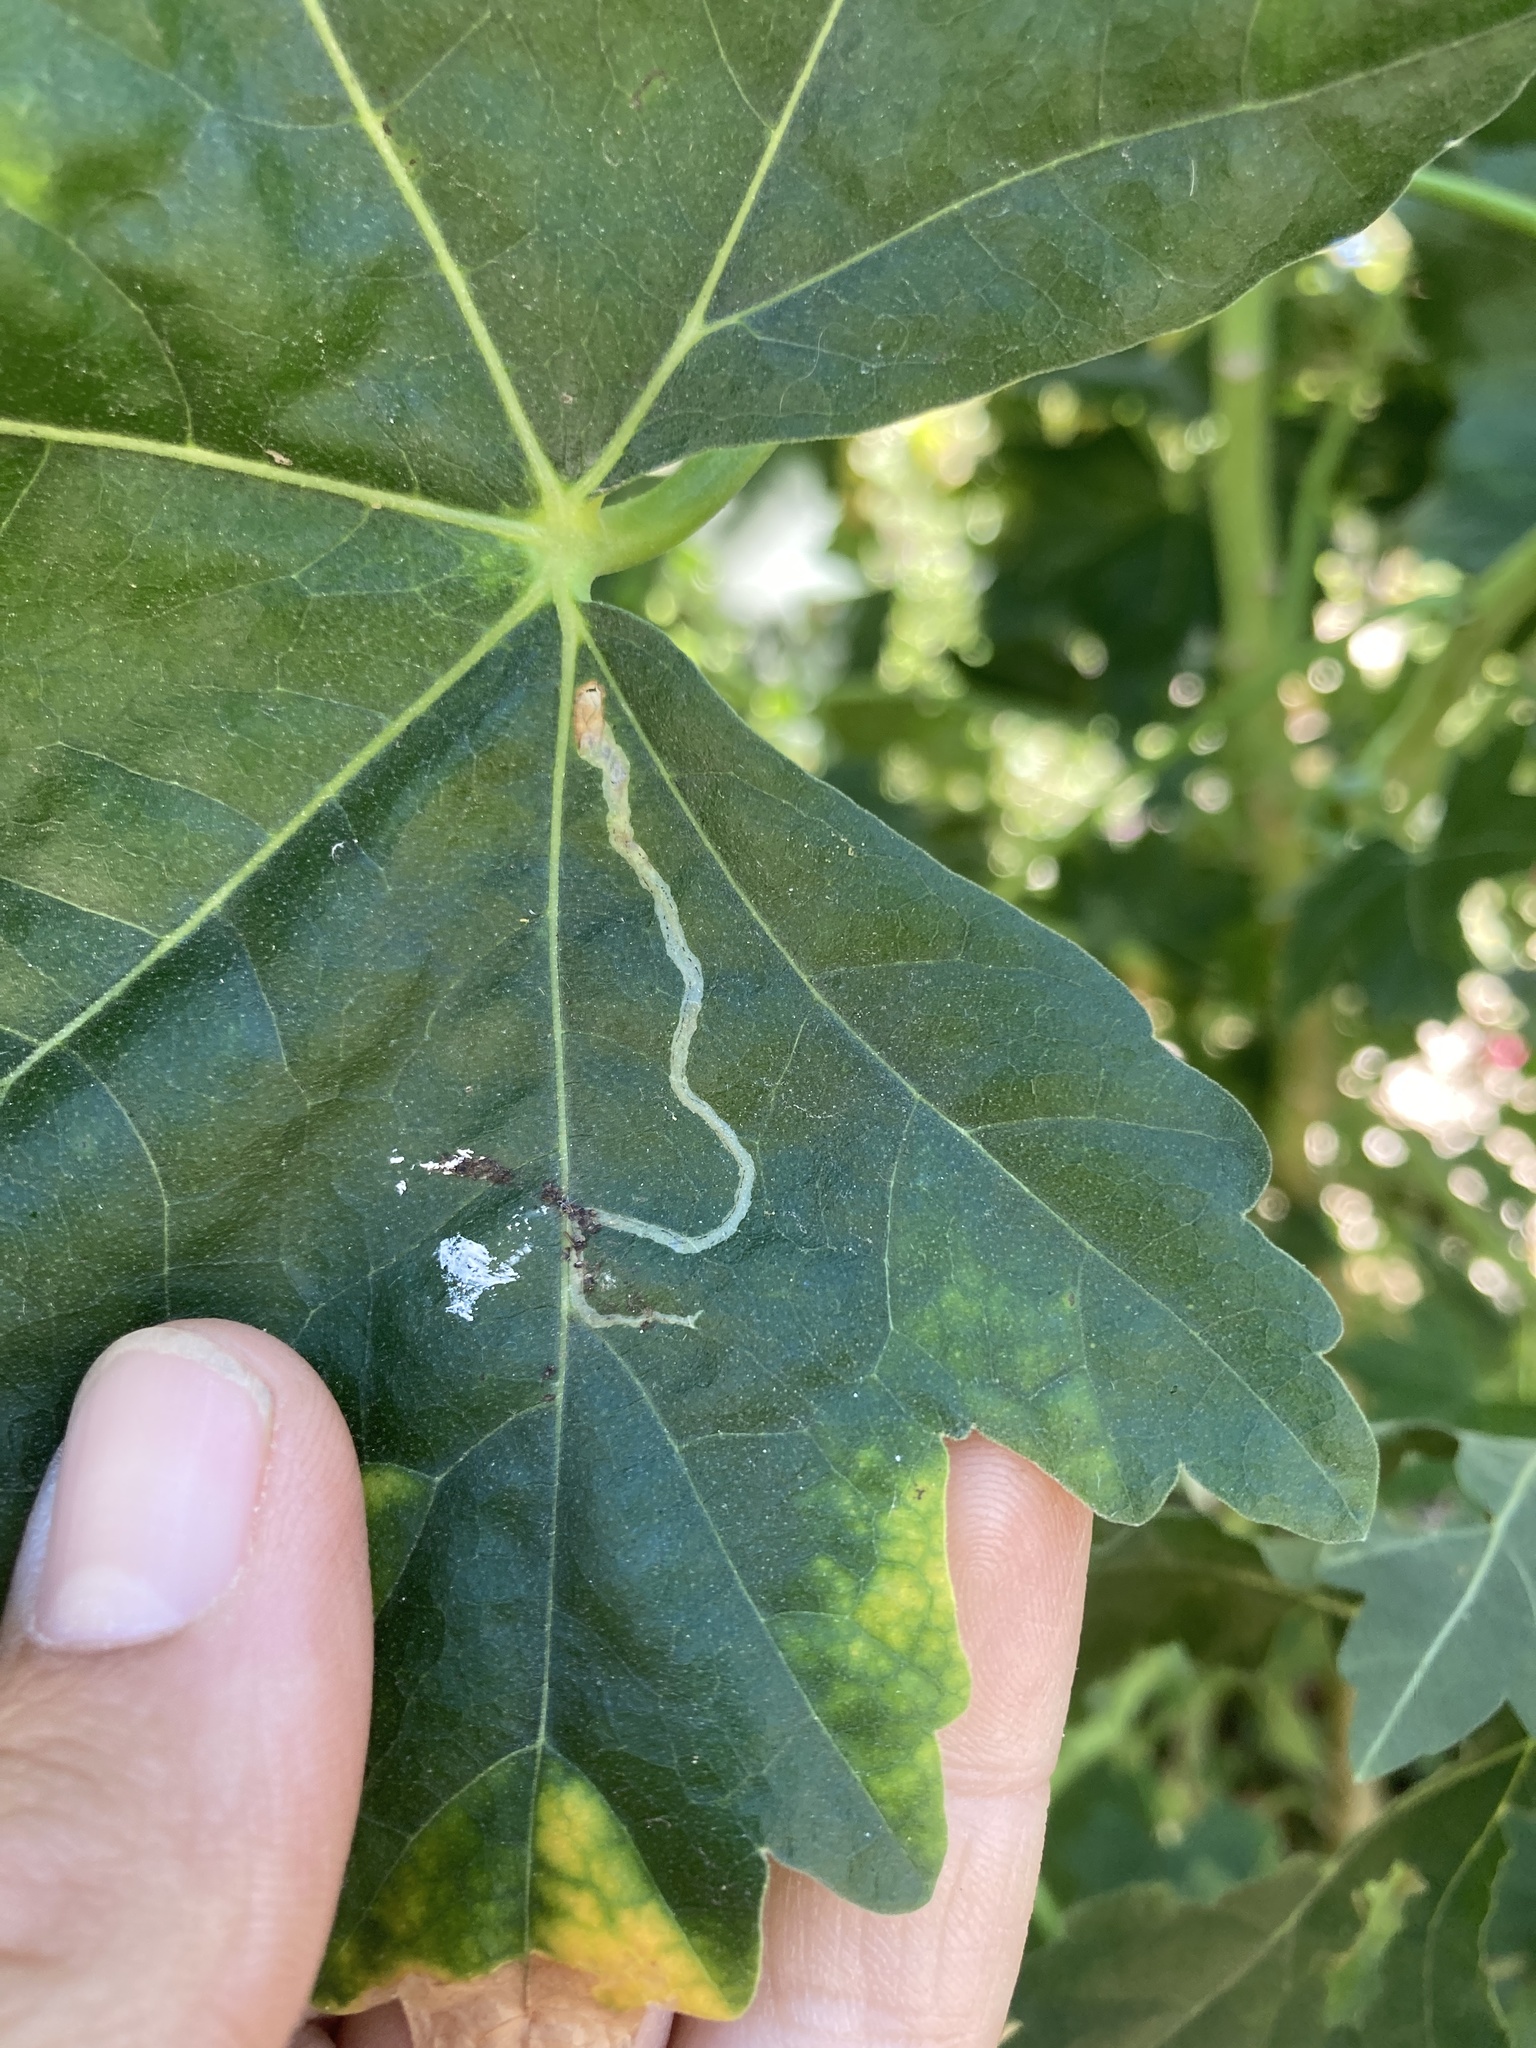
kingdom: Animalia
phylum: Arthropoda
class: Insecta
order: Diptera
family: Agromyzidae
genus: Calycomyza
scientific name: Calycomyza malvae
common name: Mallow leaf miner
